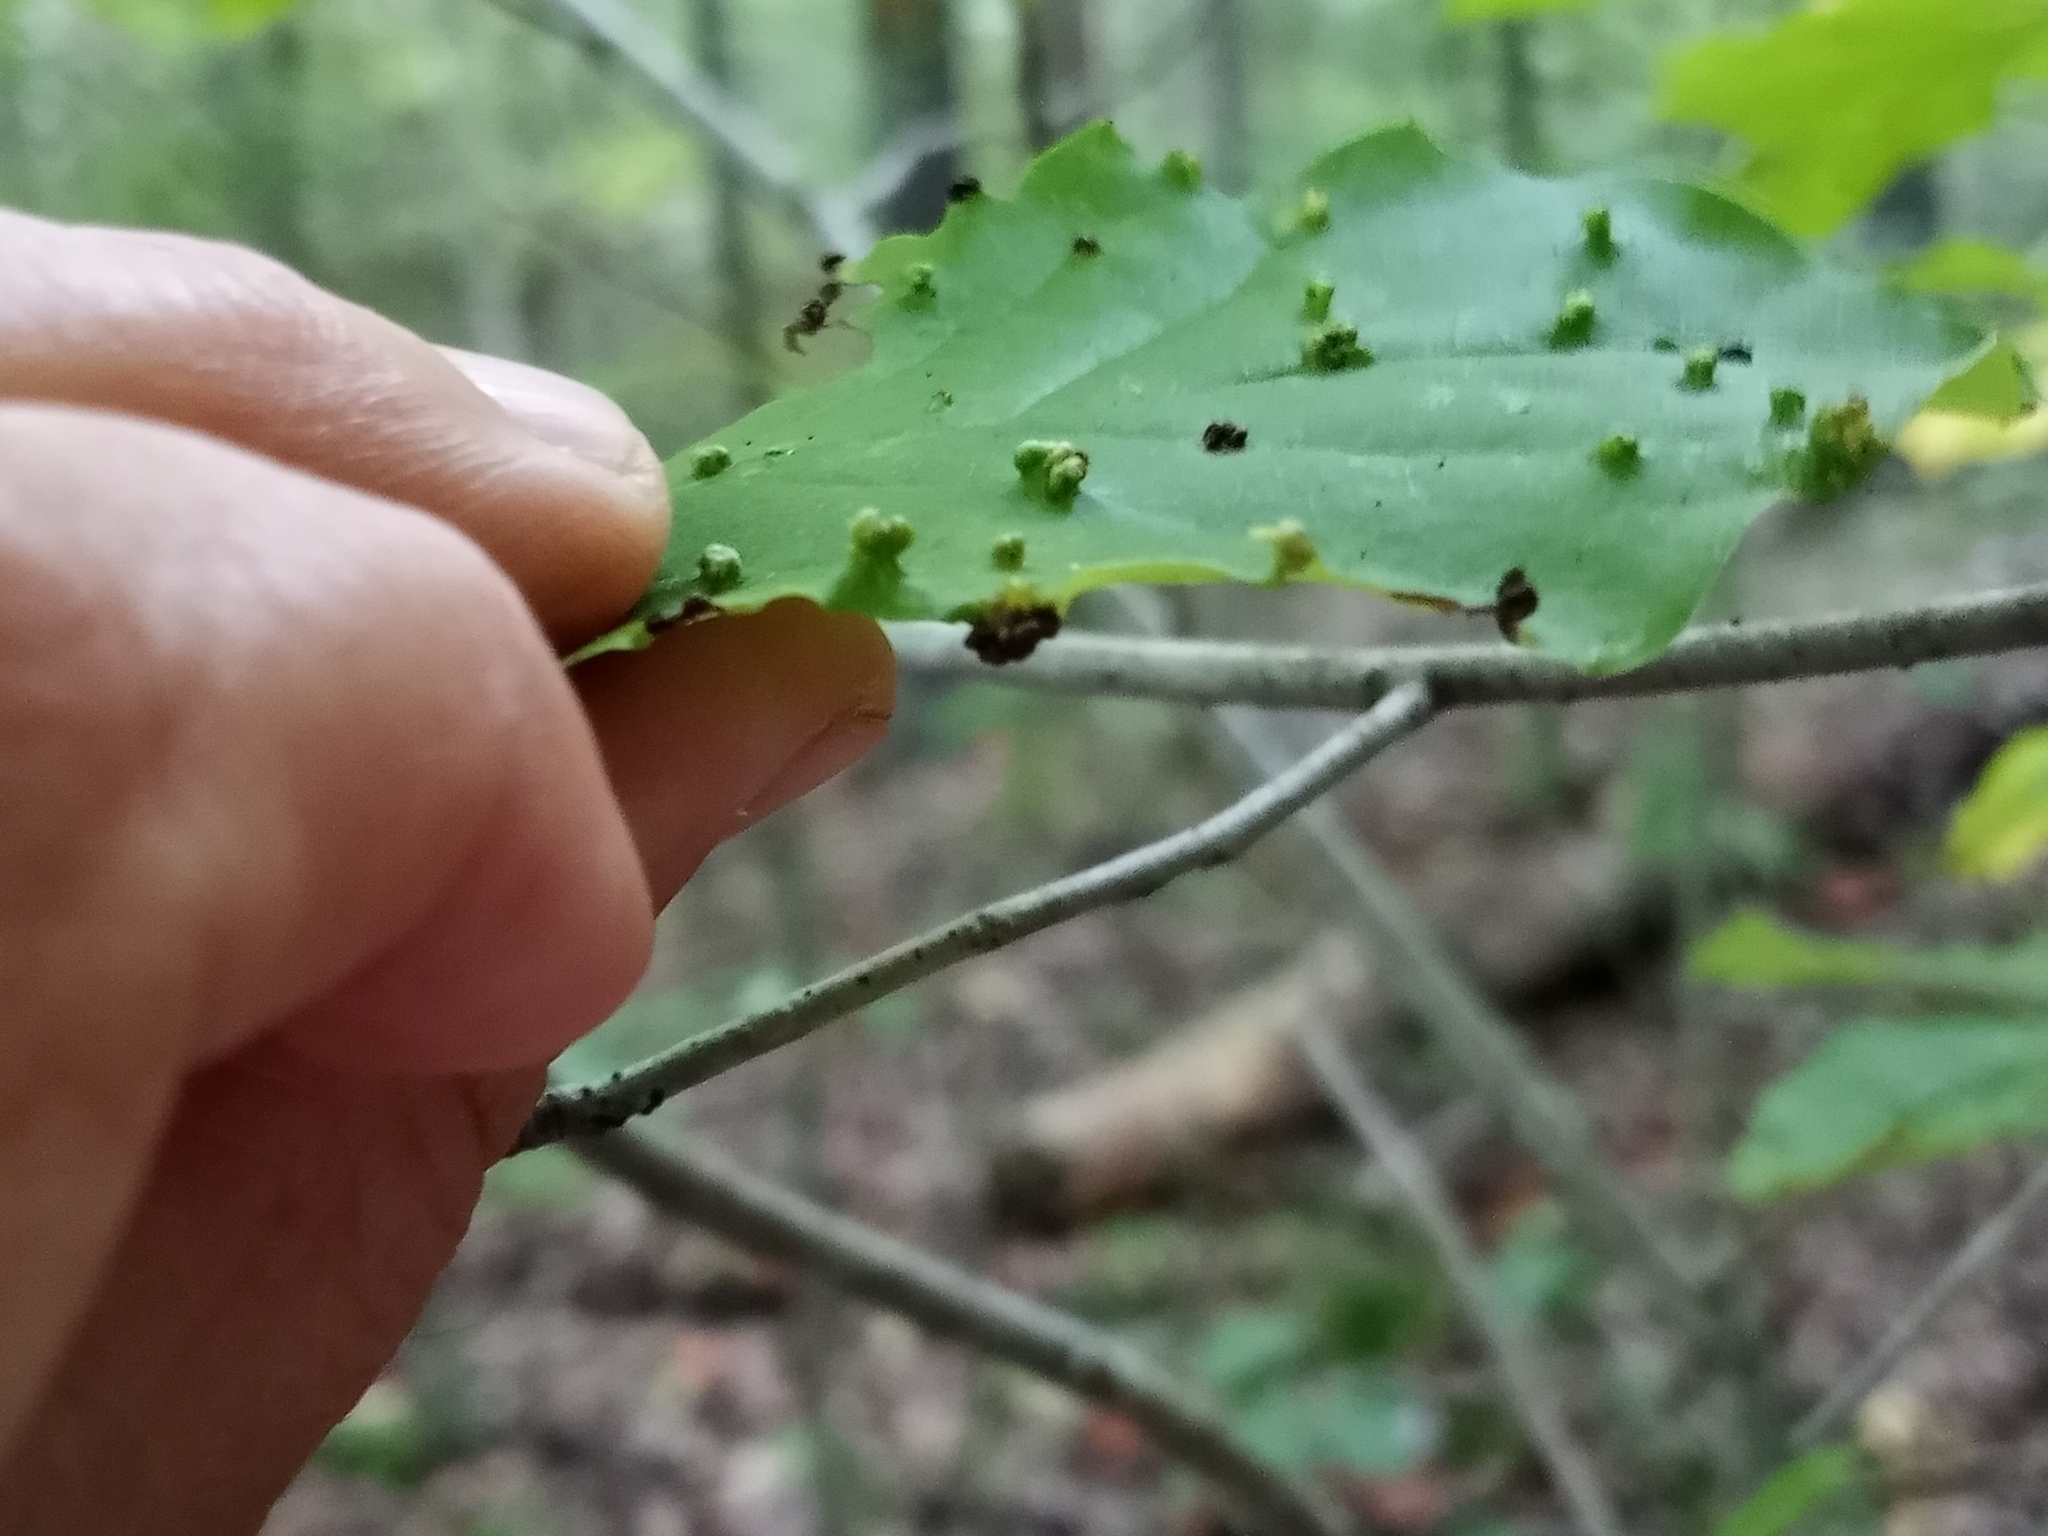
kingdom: Animalia
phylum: Arthropoda
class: Arachnida
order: Trombidiformes
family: Eriophyidae
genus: Aceria
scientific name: Aceria
